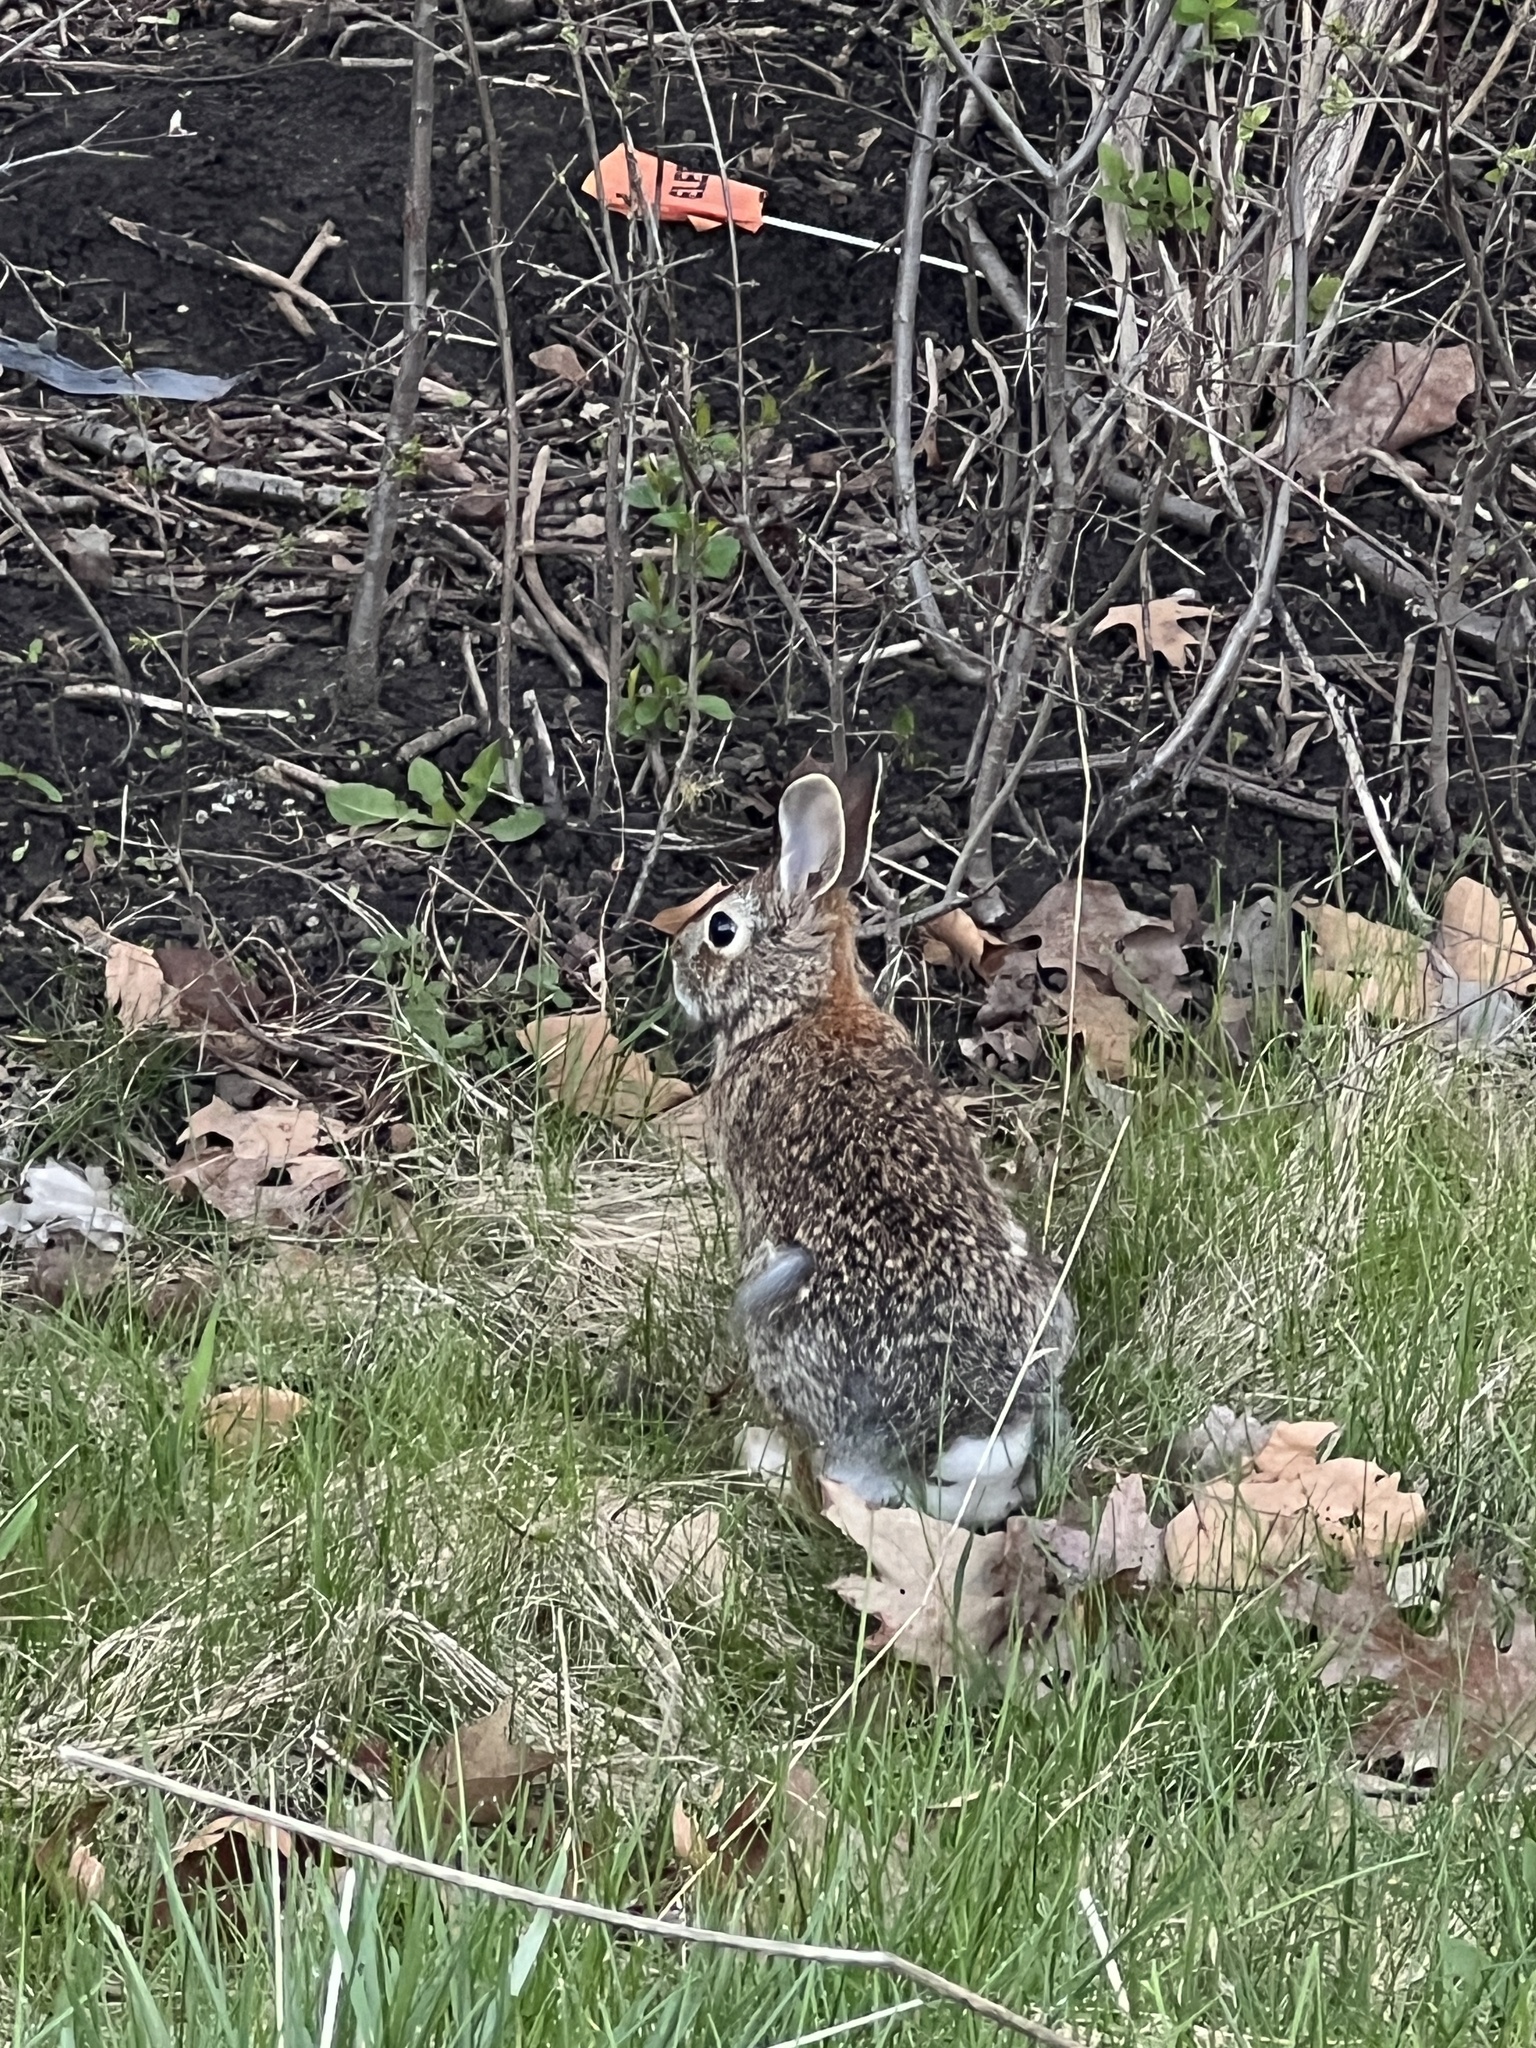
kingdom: Animalia
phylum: Chordata
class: Mammalia
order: Lagomorpha
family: Leporidae
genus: Sylvilagus
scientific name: Sylvilagus floridanus
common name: Eastern cottontail
